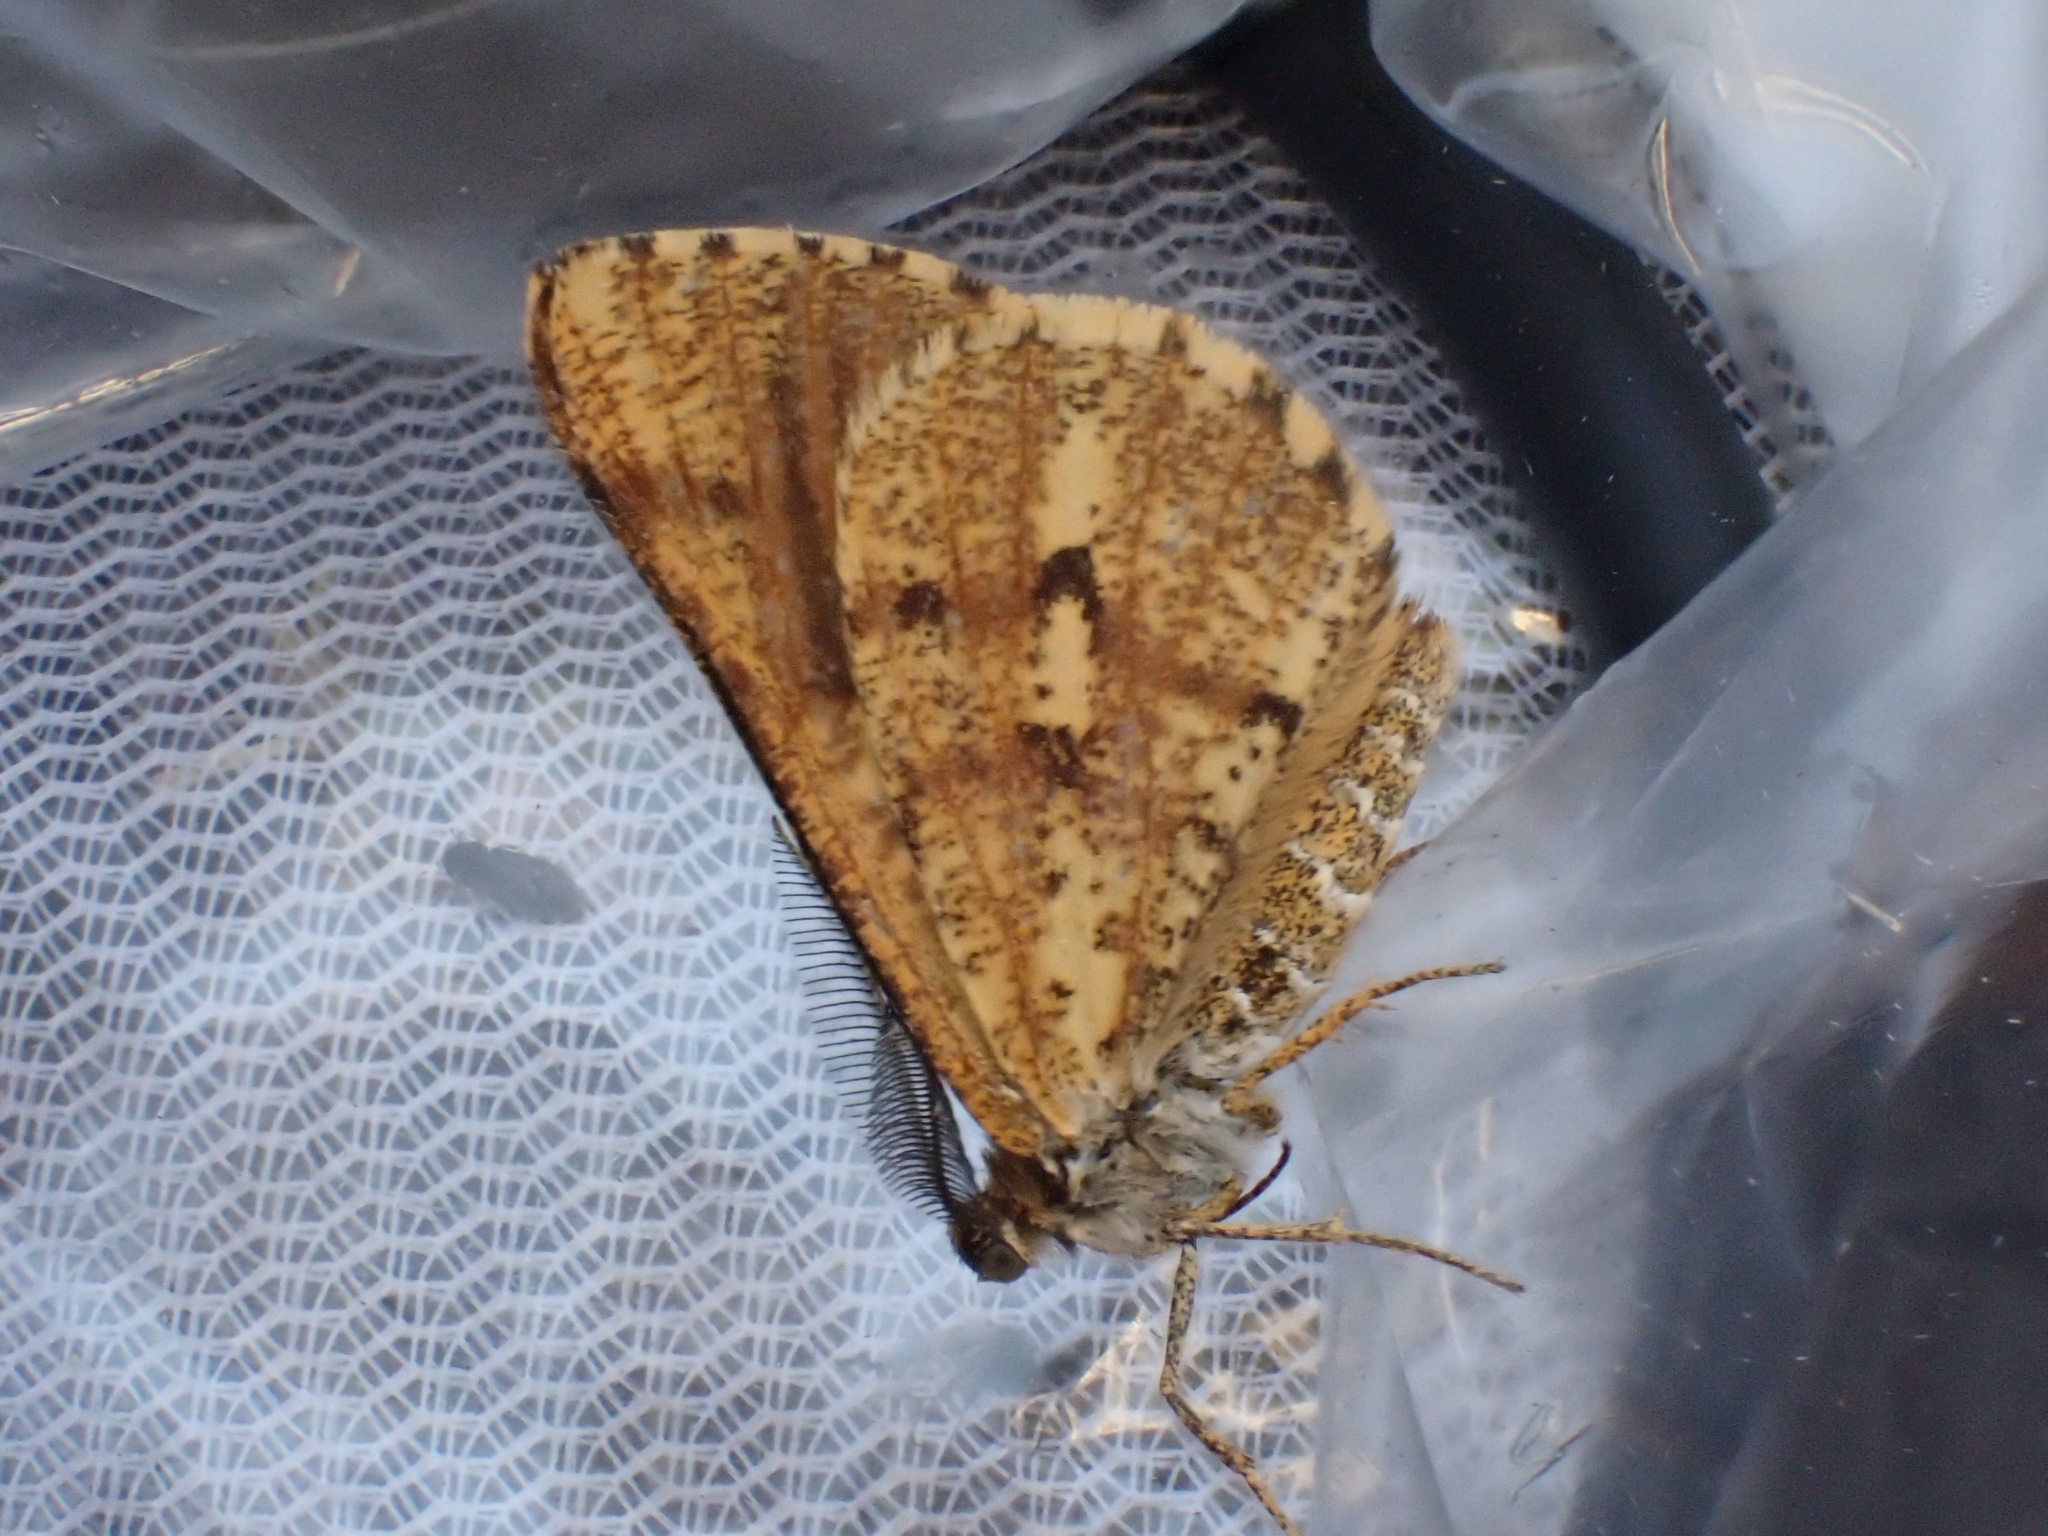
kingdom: Animalia
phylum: Arthropoda
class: Insecta
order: Lepidoptera
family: Geometridae
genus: Bupalus
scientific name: Bupalus piniaria
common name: Bordered white
